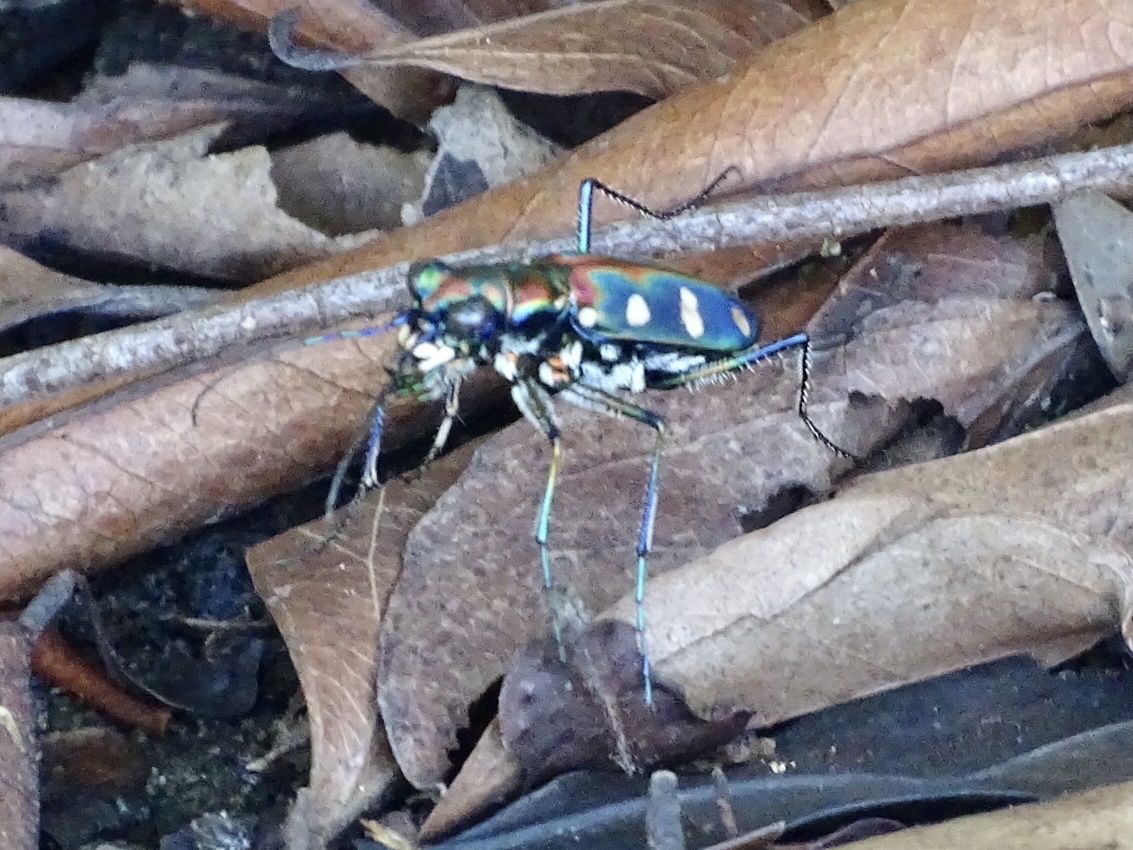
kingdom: Animalia
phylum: Arthropoda
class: Insecta
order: Coleoptera
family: Carabidae
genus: Cicindela
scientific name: Cicindela juxtata
